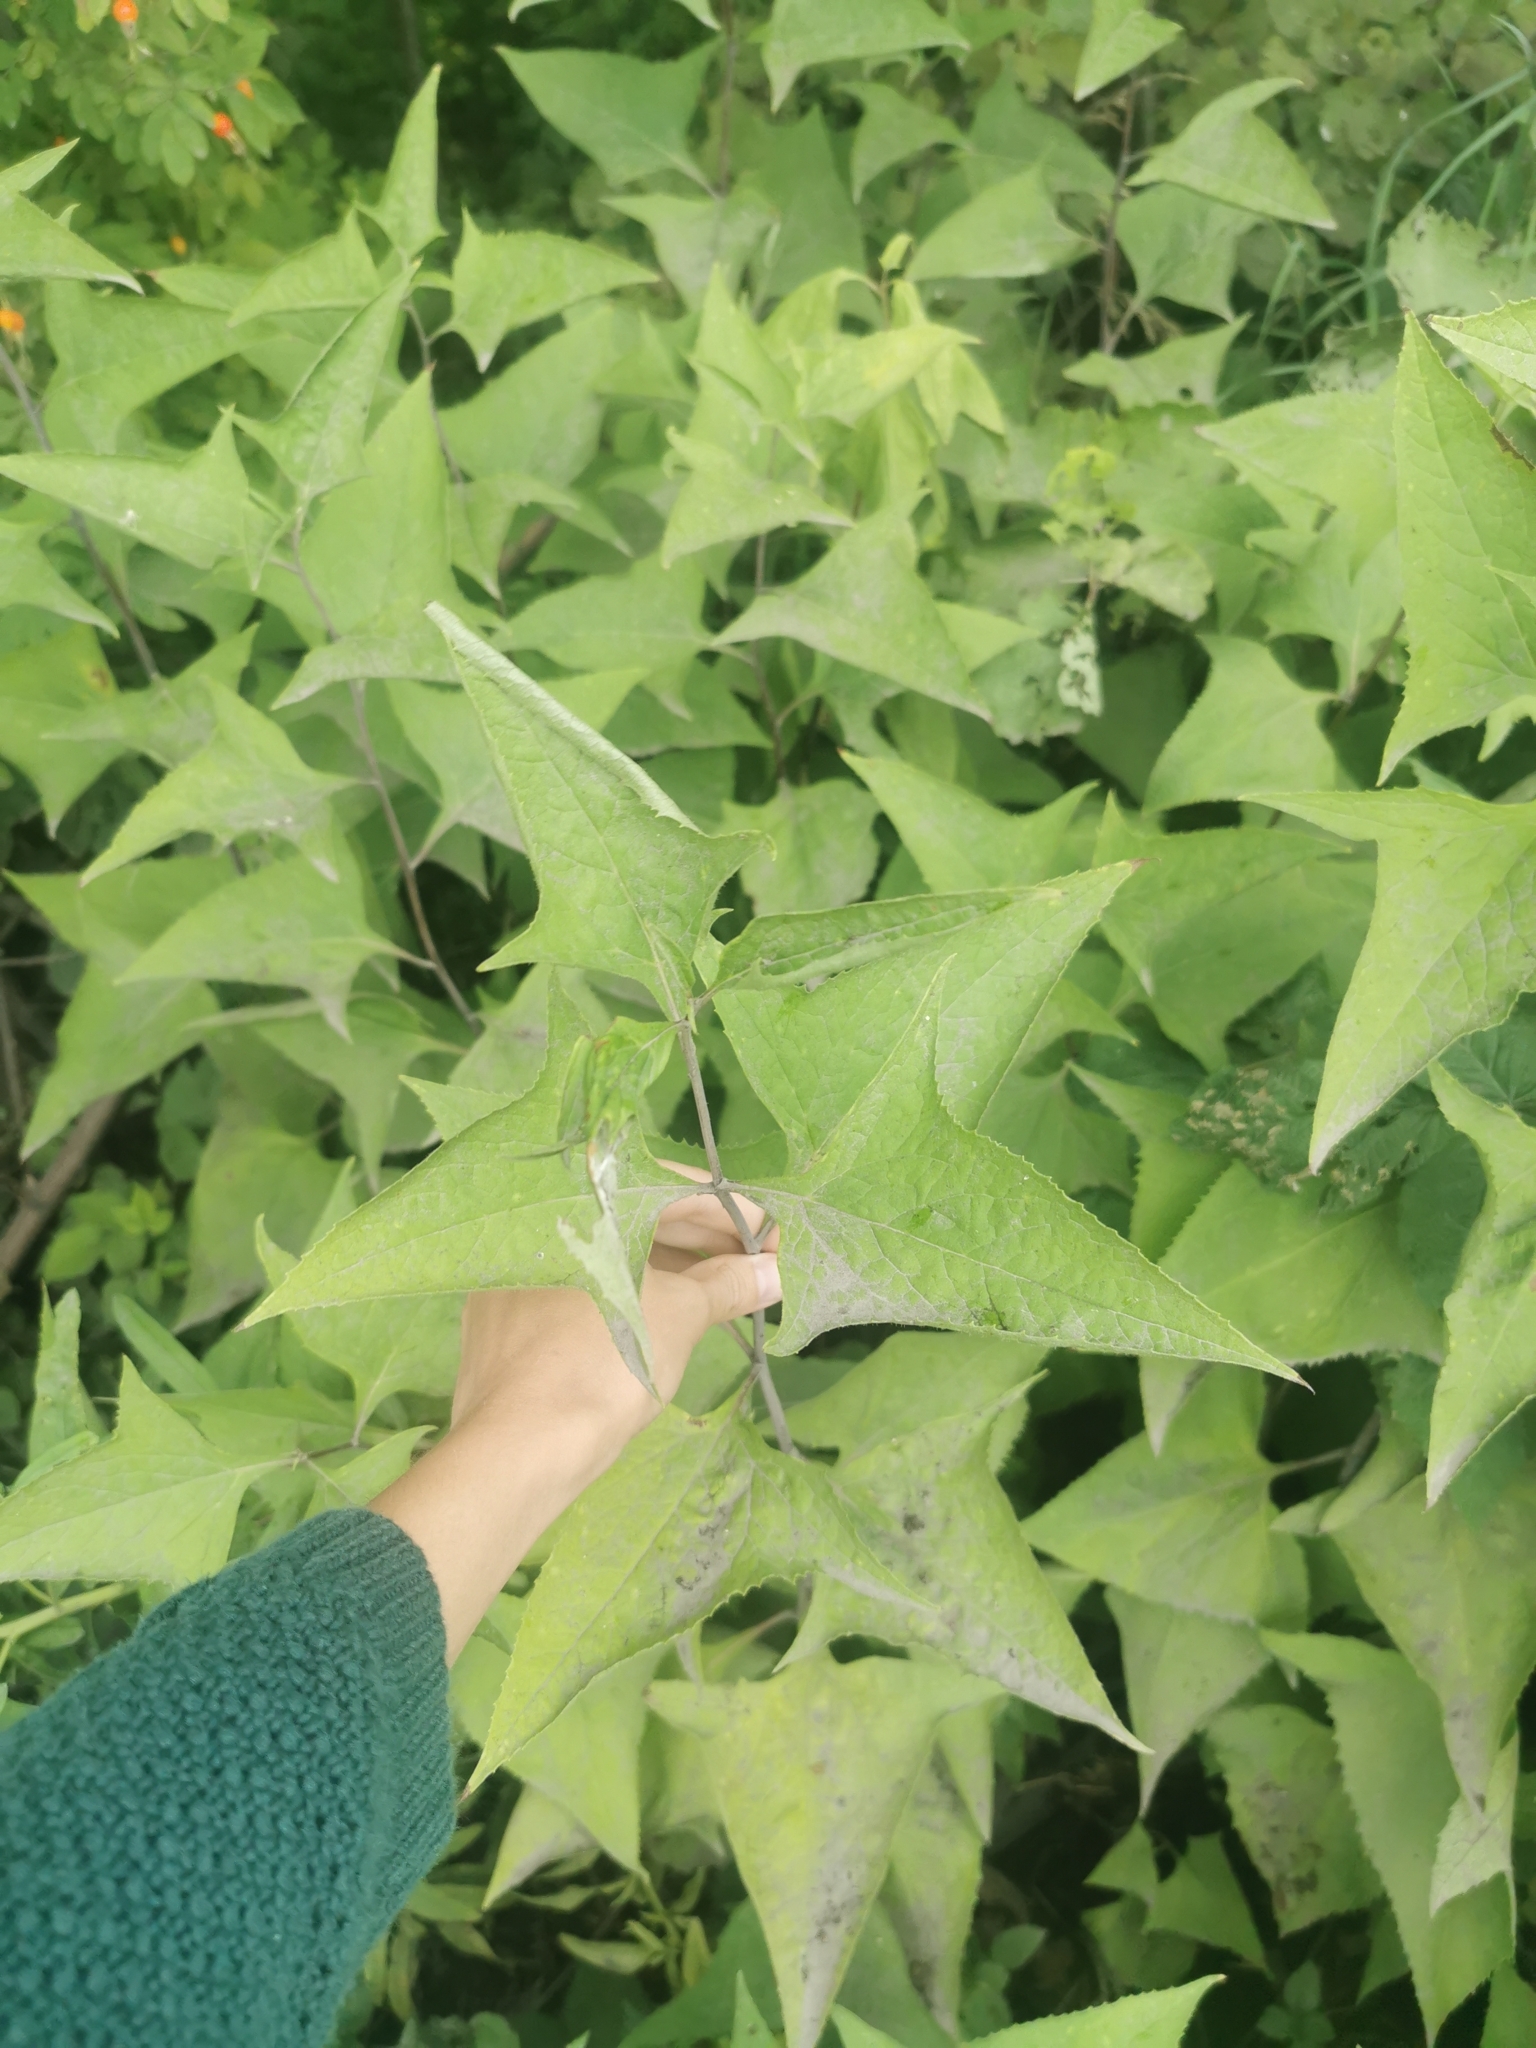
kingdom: Plantae
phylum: Tracheophyta
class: Magnoliopsida
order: Asterales
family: Asteraceae
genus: Parasenecio
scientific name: Parasenecio hastatus
